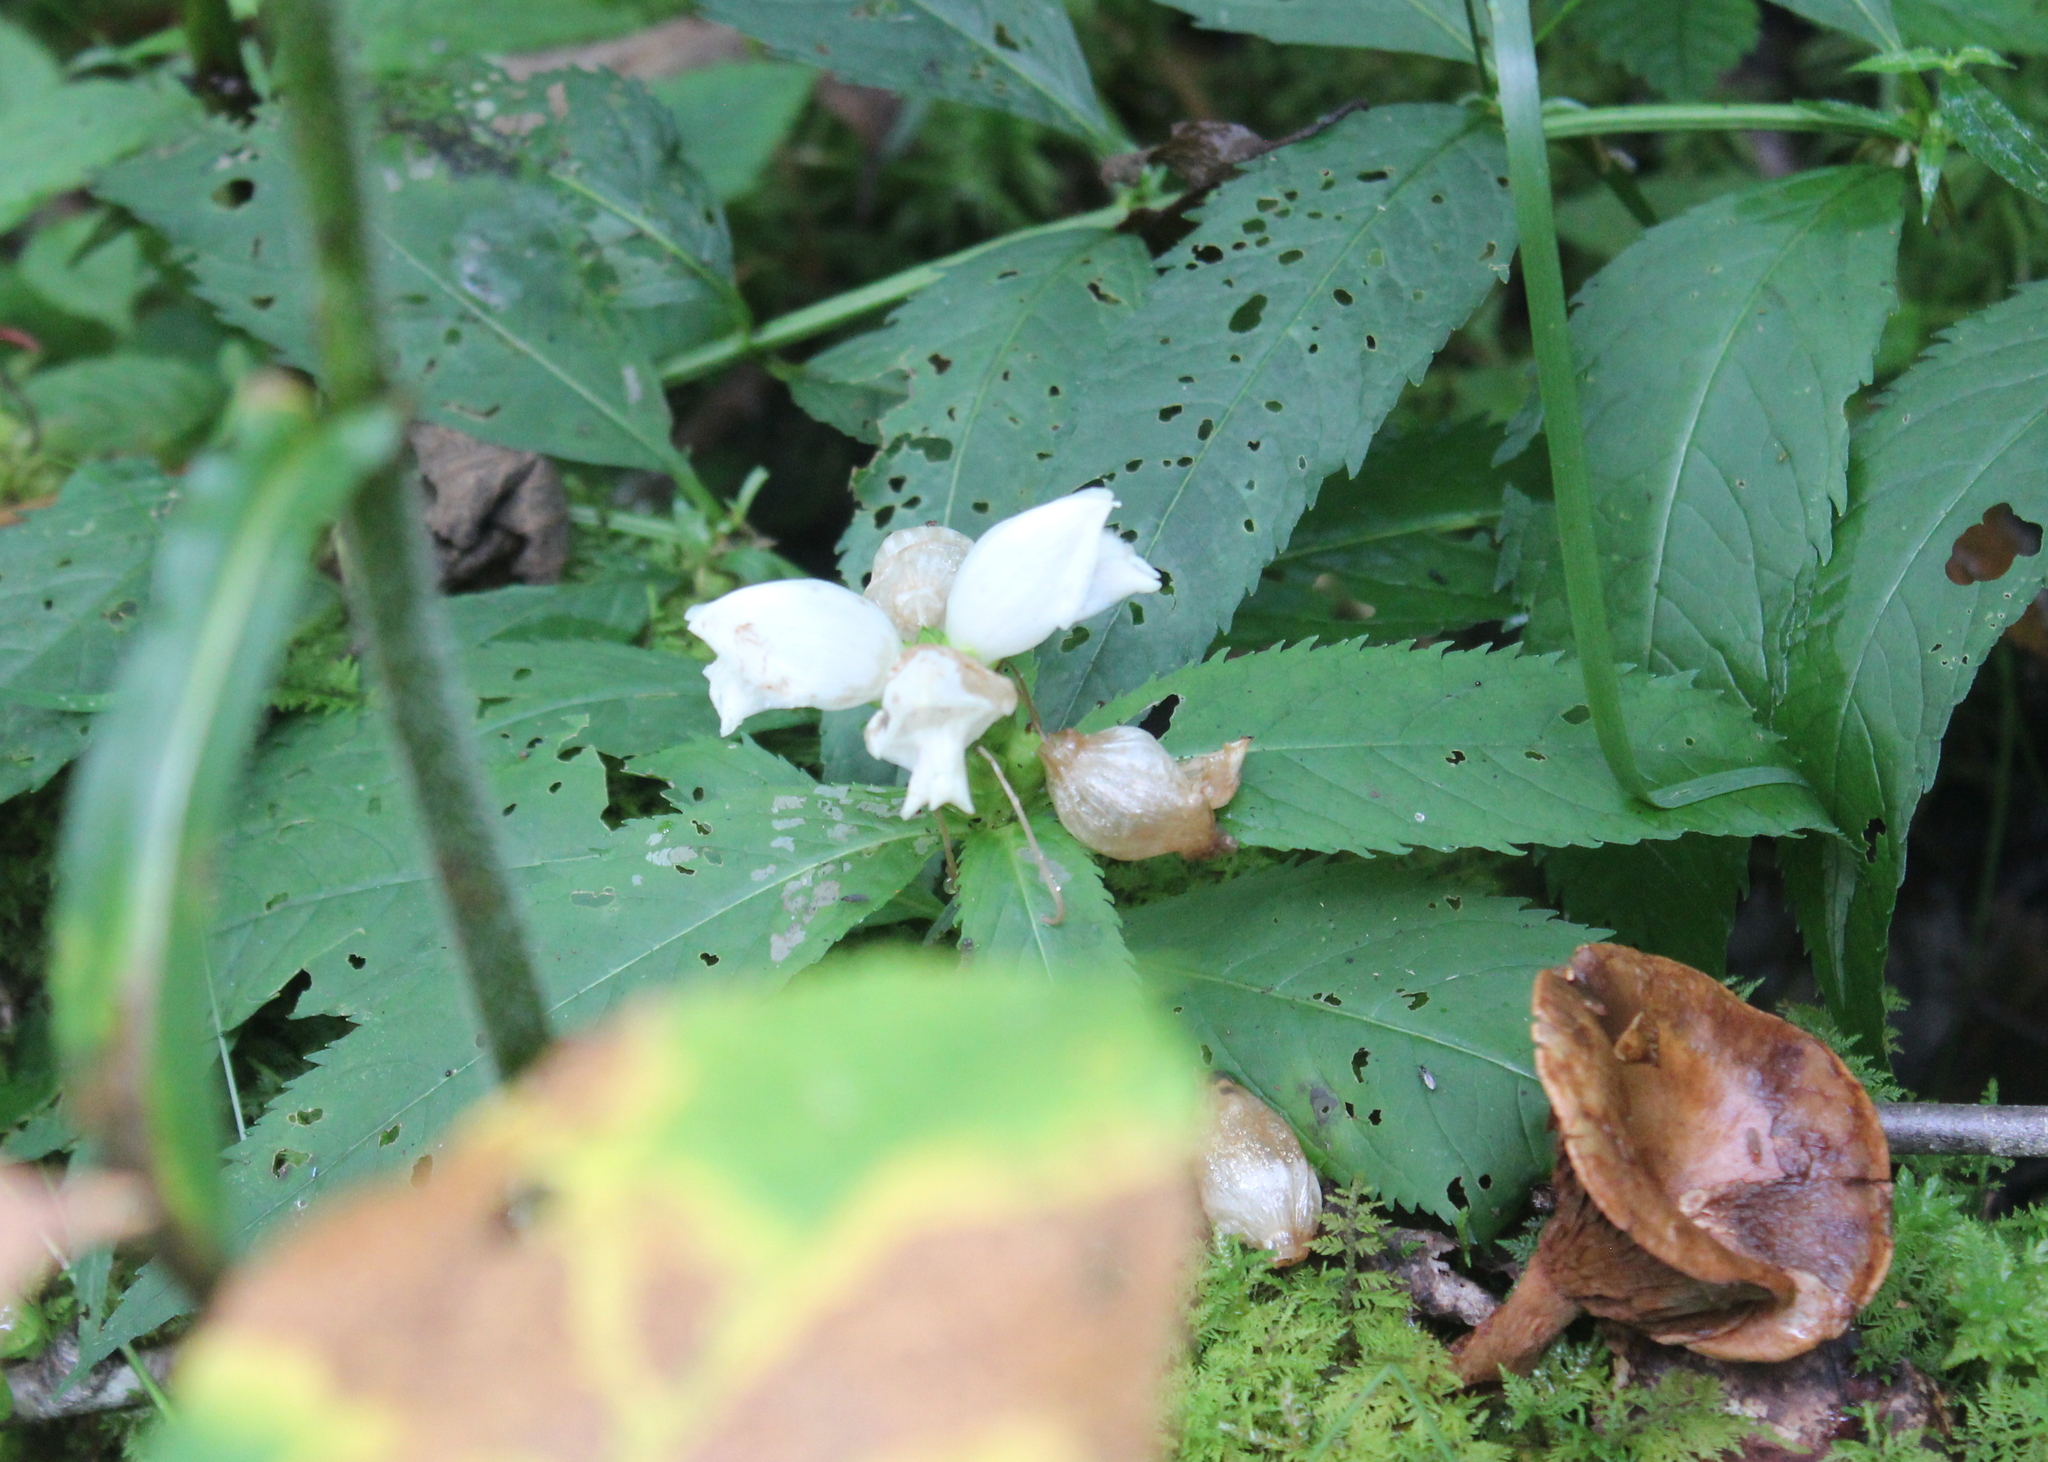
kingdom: Plantae
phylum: Tracheophyta
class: Magnoliopsida
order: Lamiales
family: Plantaginaceae
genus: Chelone
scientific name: Chelone glabra
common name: Snakehead
